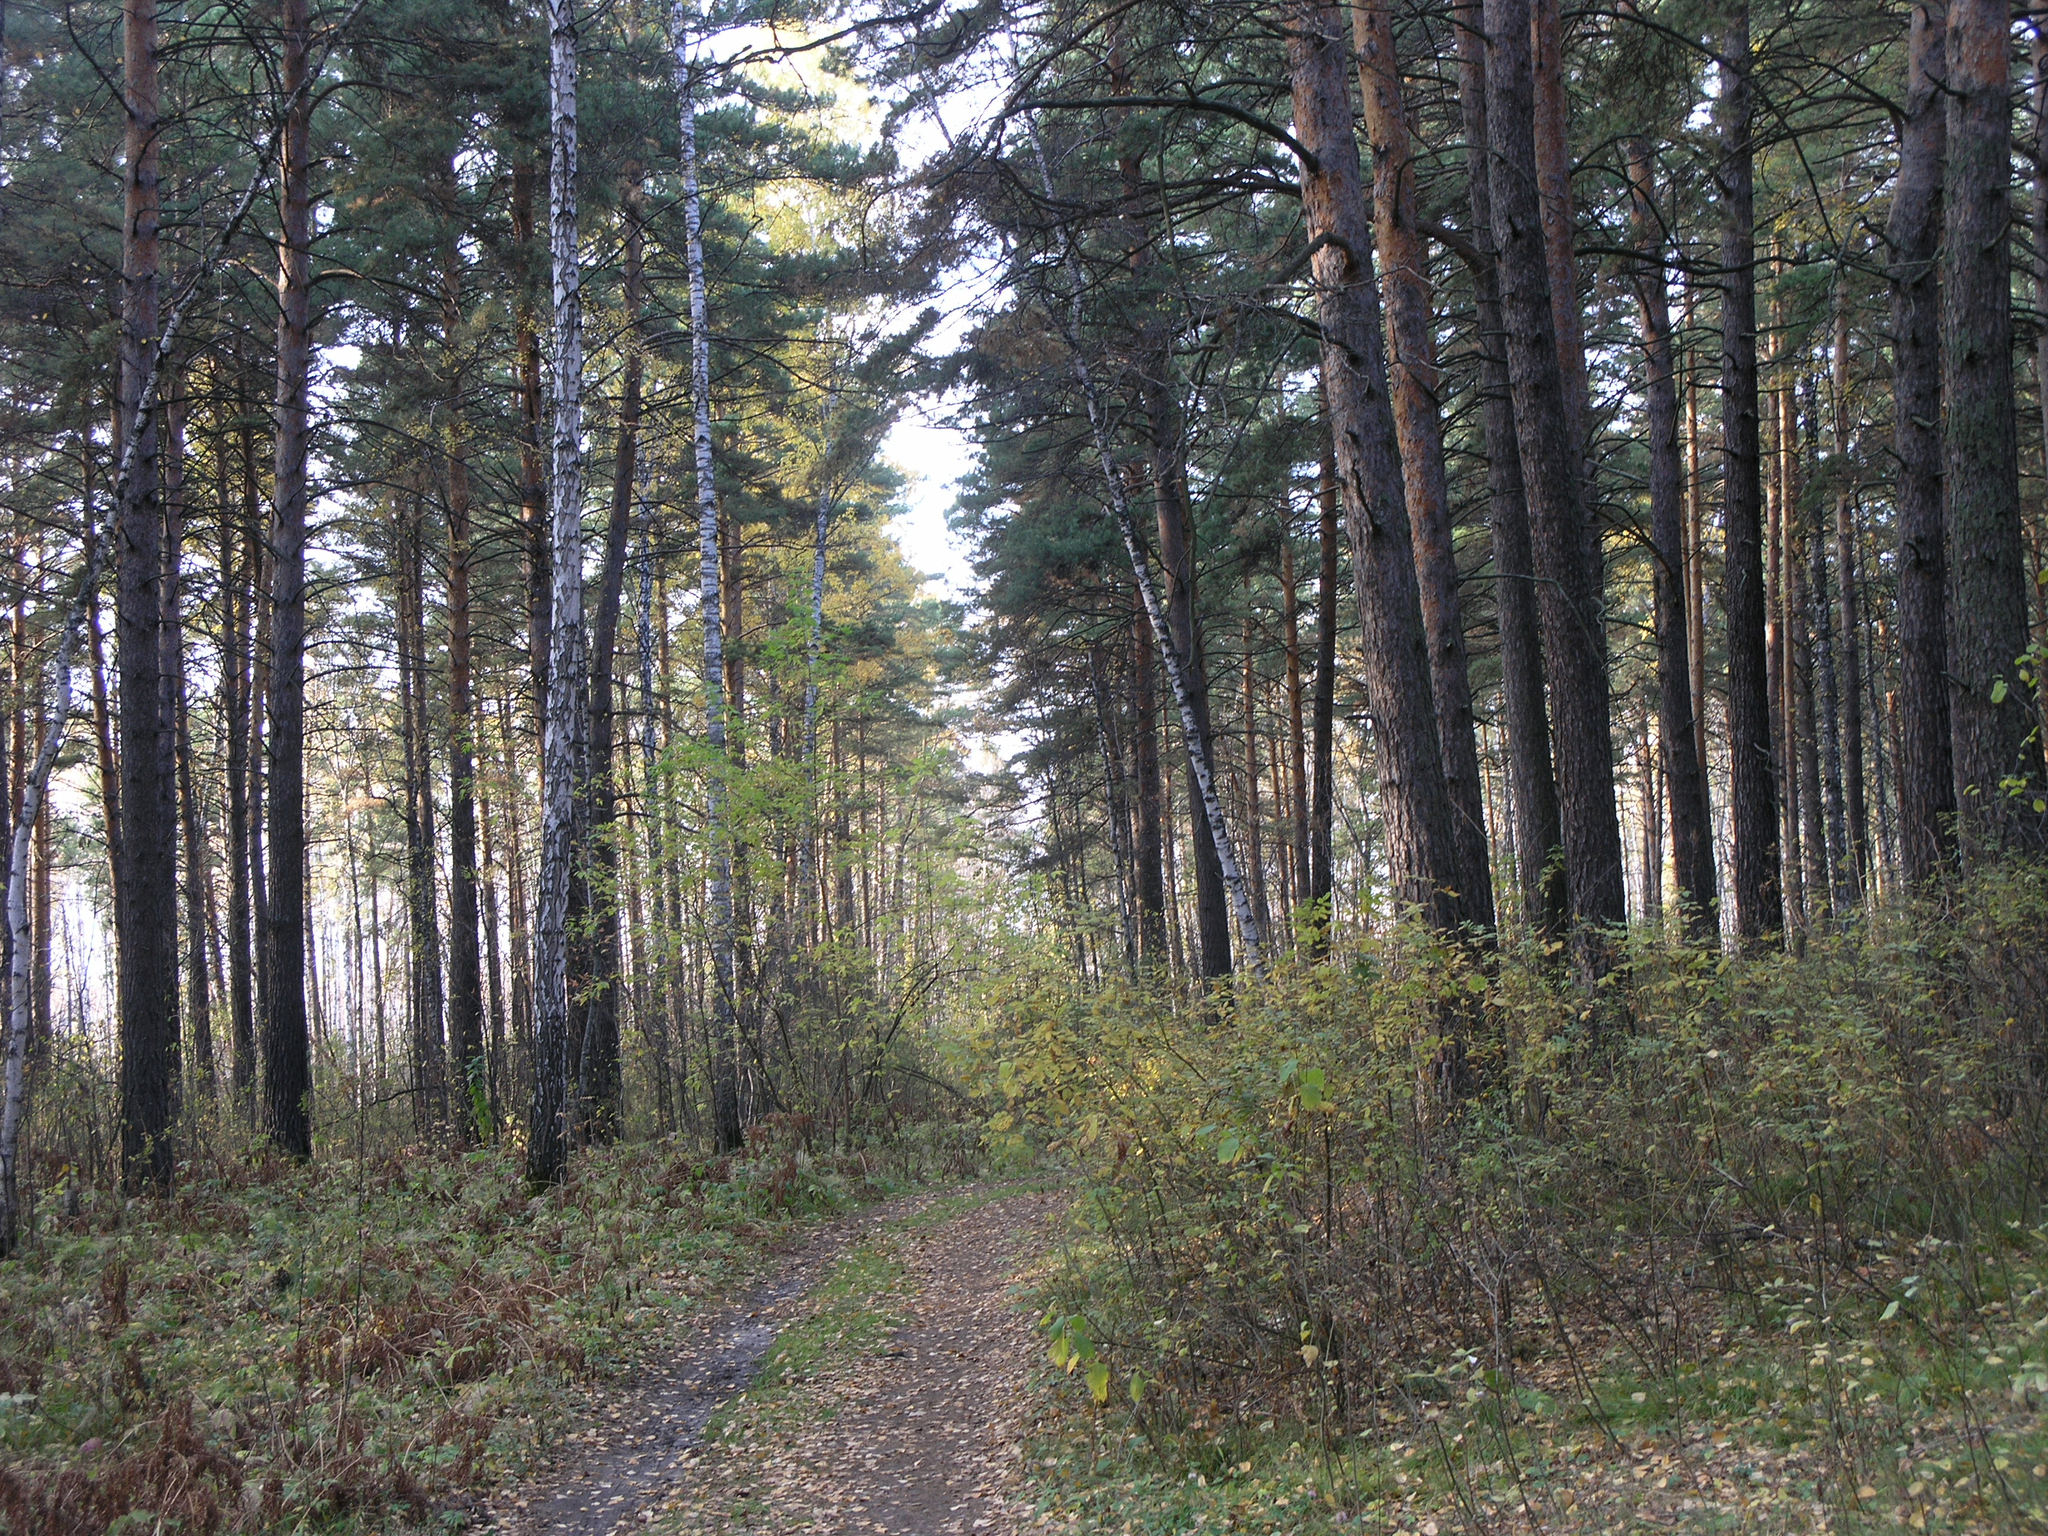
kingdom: Plantae
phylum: Tracheophyta
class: Pinopsida
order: Pinales
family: Pinaceae
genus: Pinus
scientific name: Pinus sylvestris
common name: Scots pine
